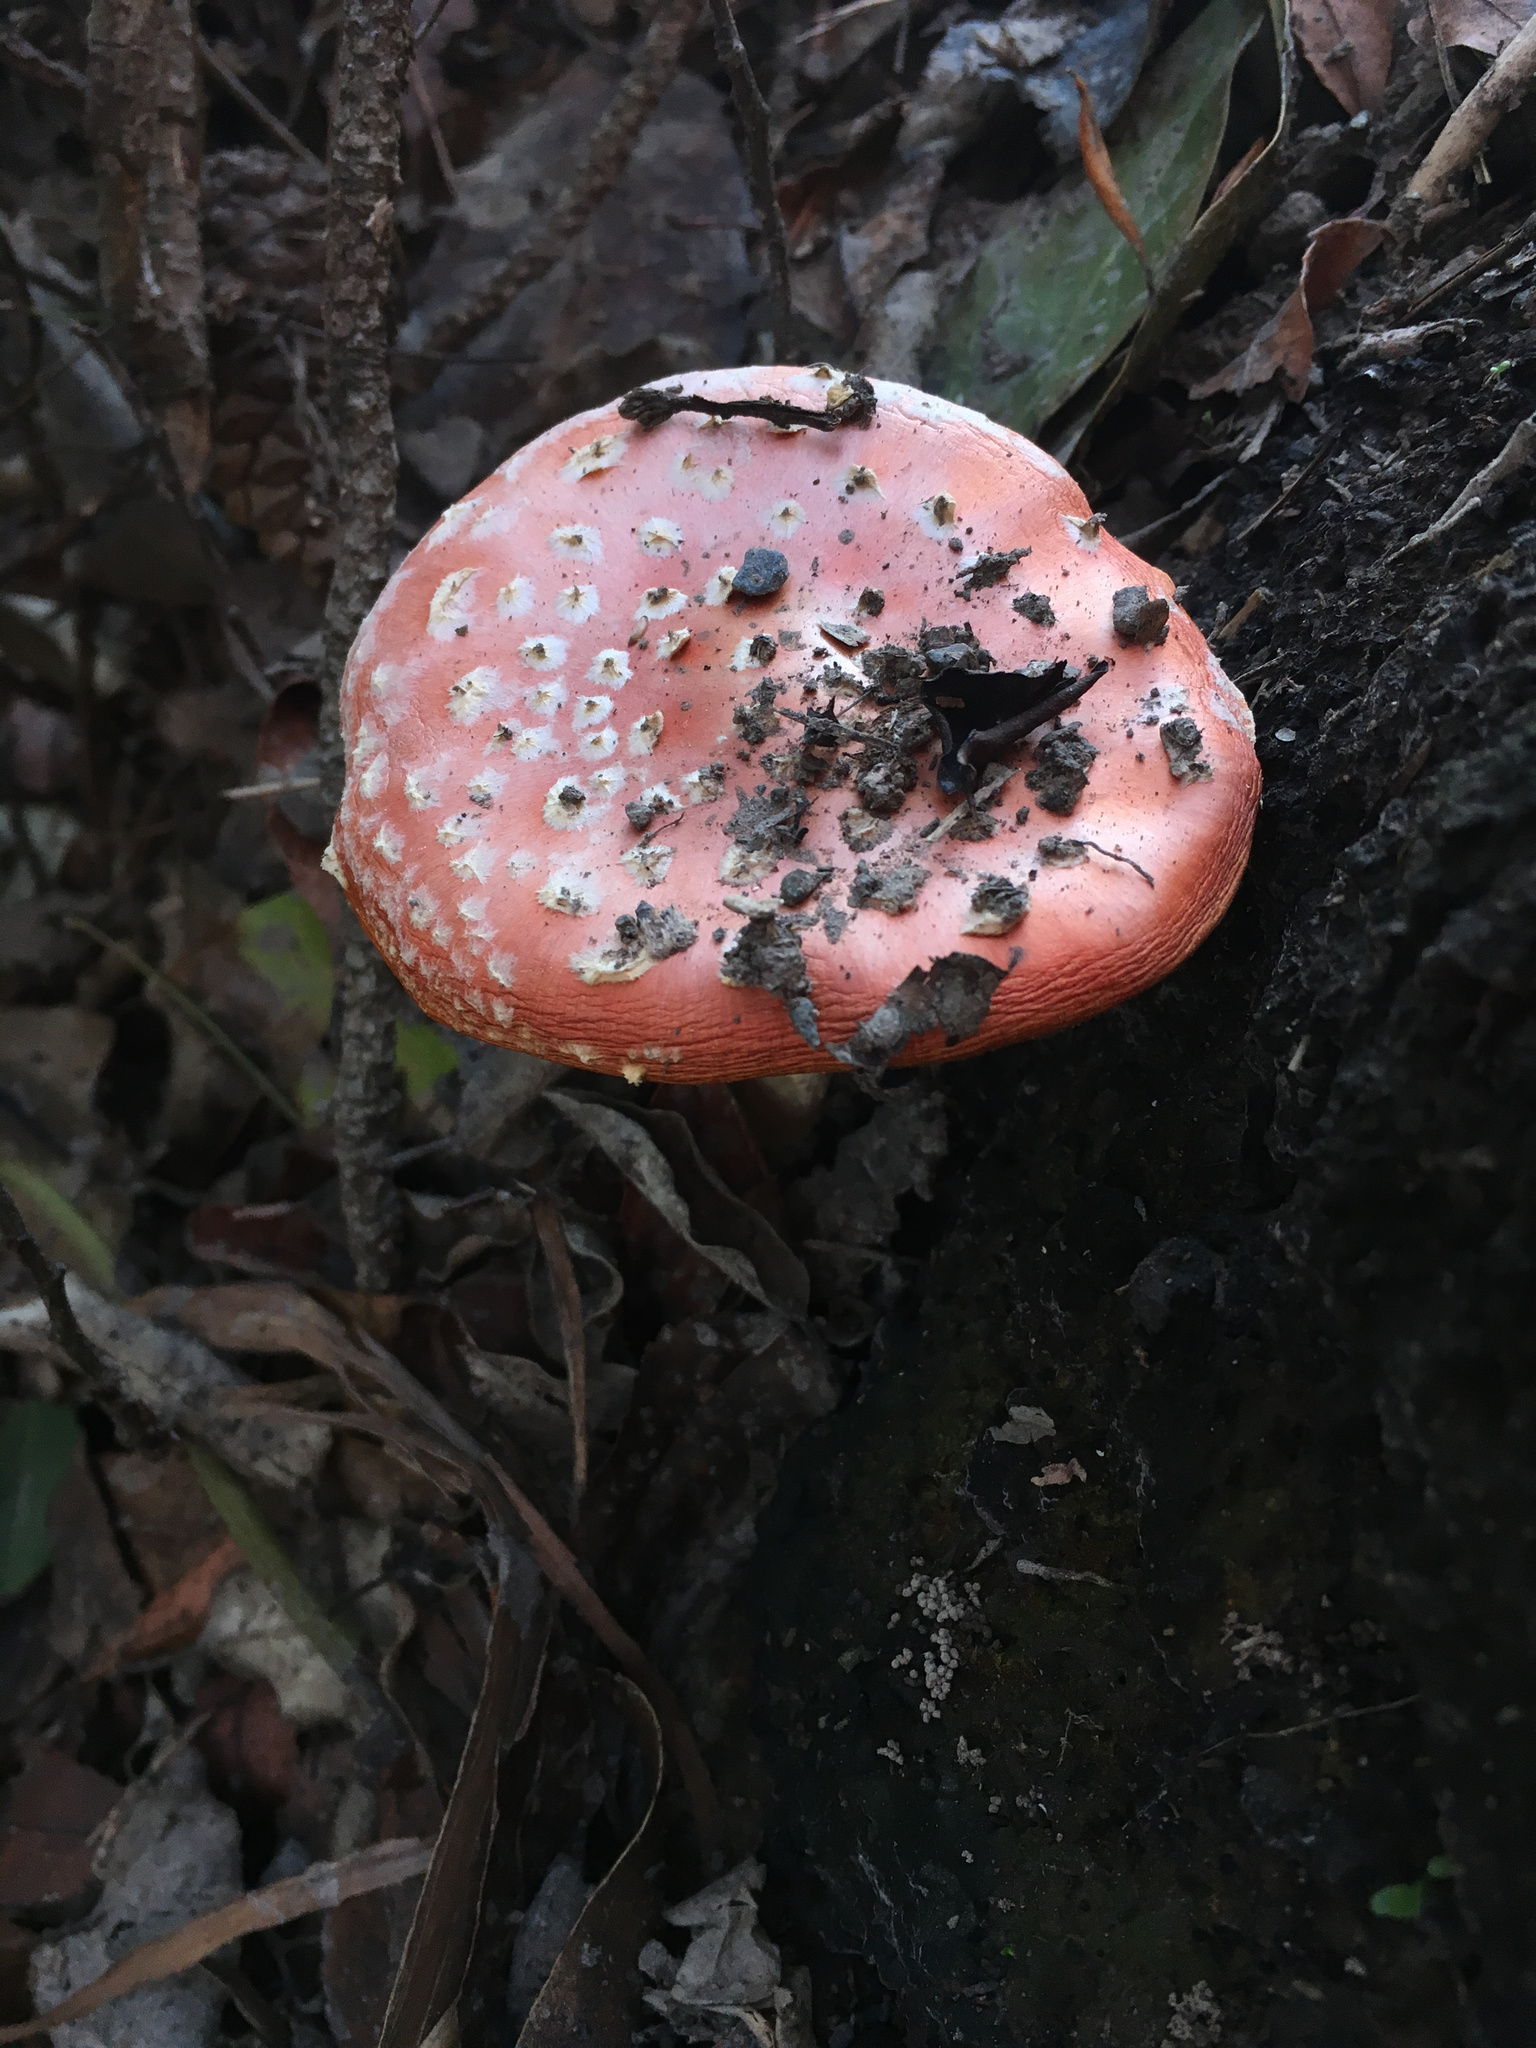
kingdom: Fungi
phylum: Basidiomycota
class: Agaricomycetes
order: Agaricales
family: Amanitaceae
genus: Amanita
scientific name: Amanita muscaria
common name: Fly agaric
